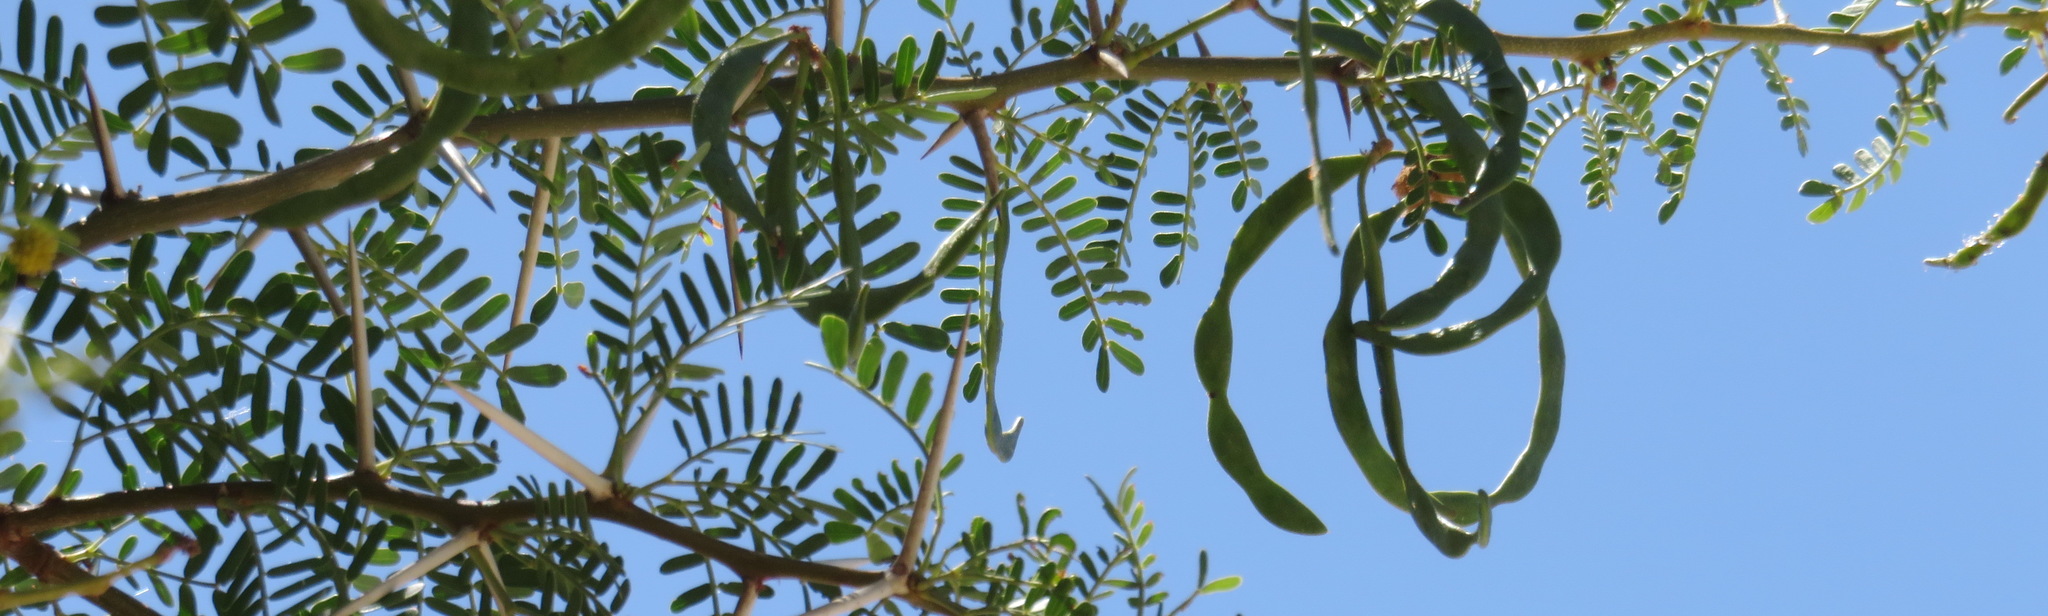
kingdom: Plantae
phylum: Tracheophyta
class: Magnoliopsida
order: Fabales
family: Fabaceae
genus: Vachellia
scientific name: Vachellia karroo
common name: Sweet thorn
